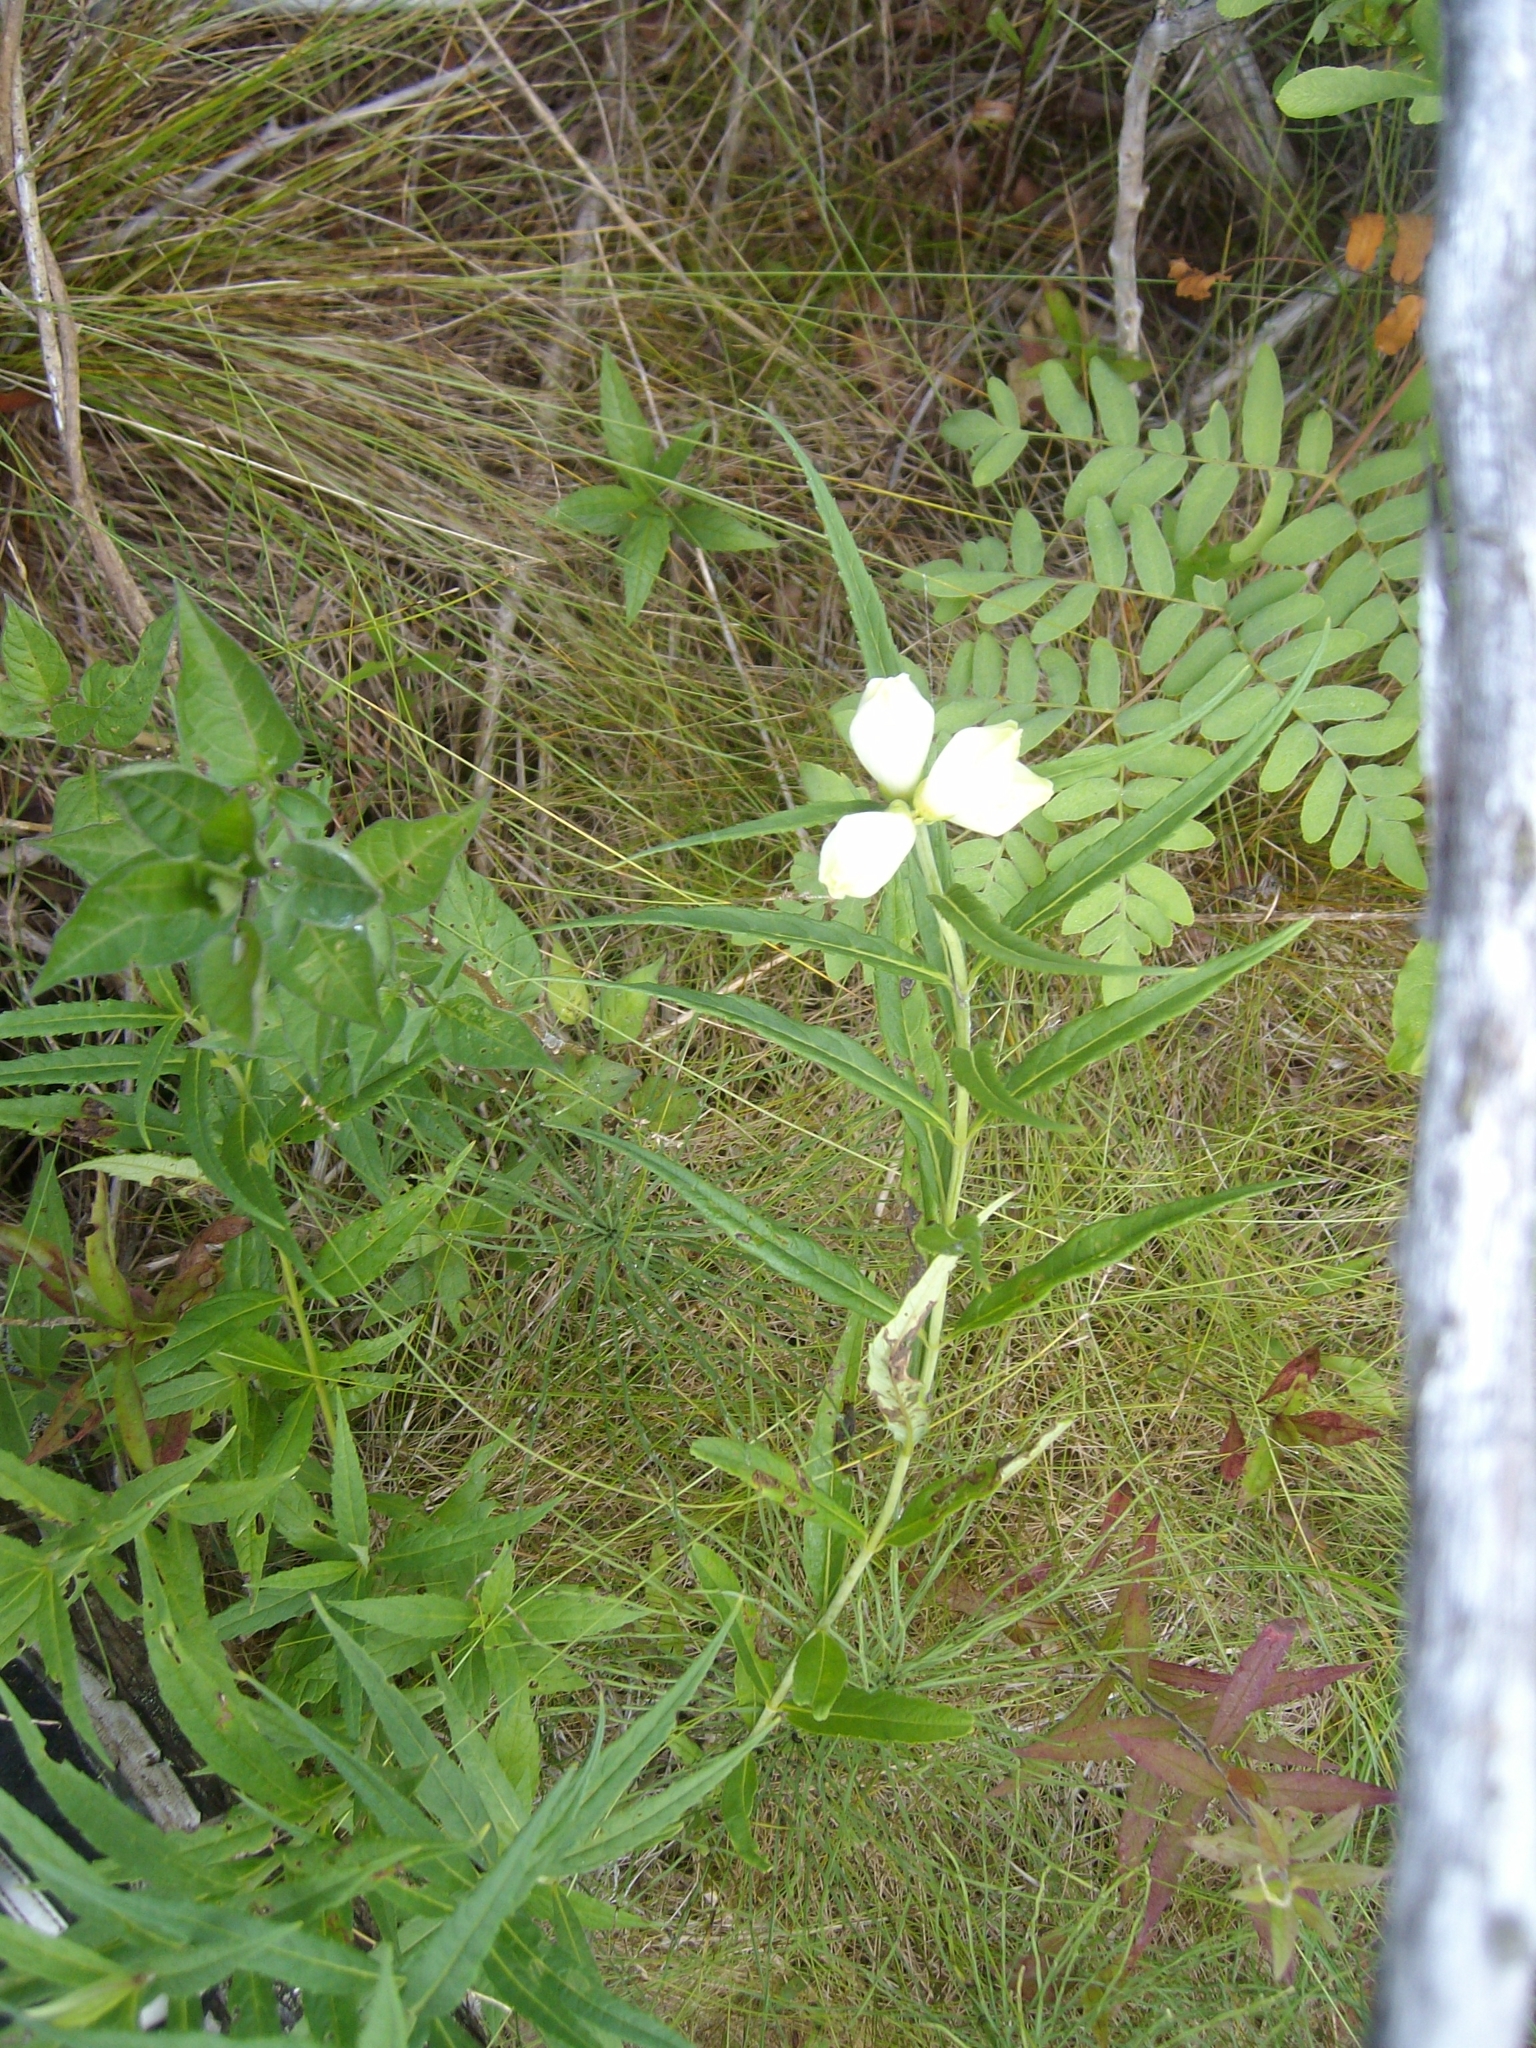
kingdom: Plantae
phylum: Tracheophyta
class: Magnoliopsida
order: Lamiales
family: Plantaginaceae
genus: Chelone
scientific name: Chelone glabra
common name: Snakehead
